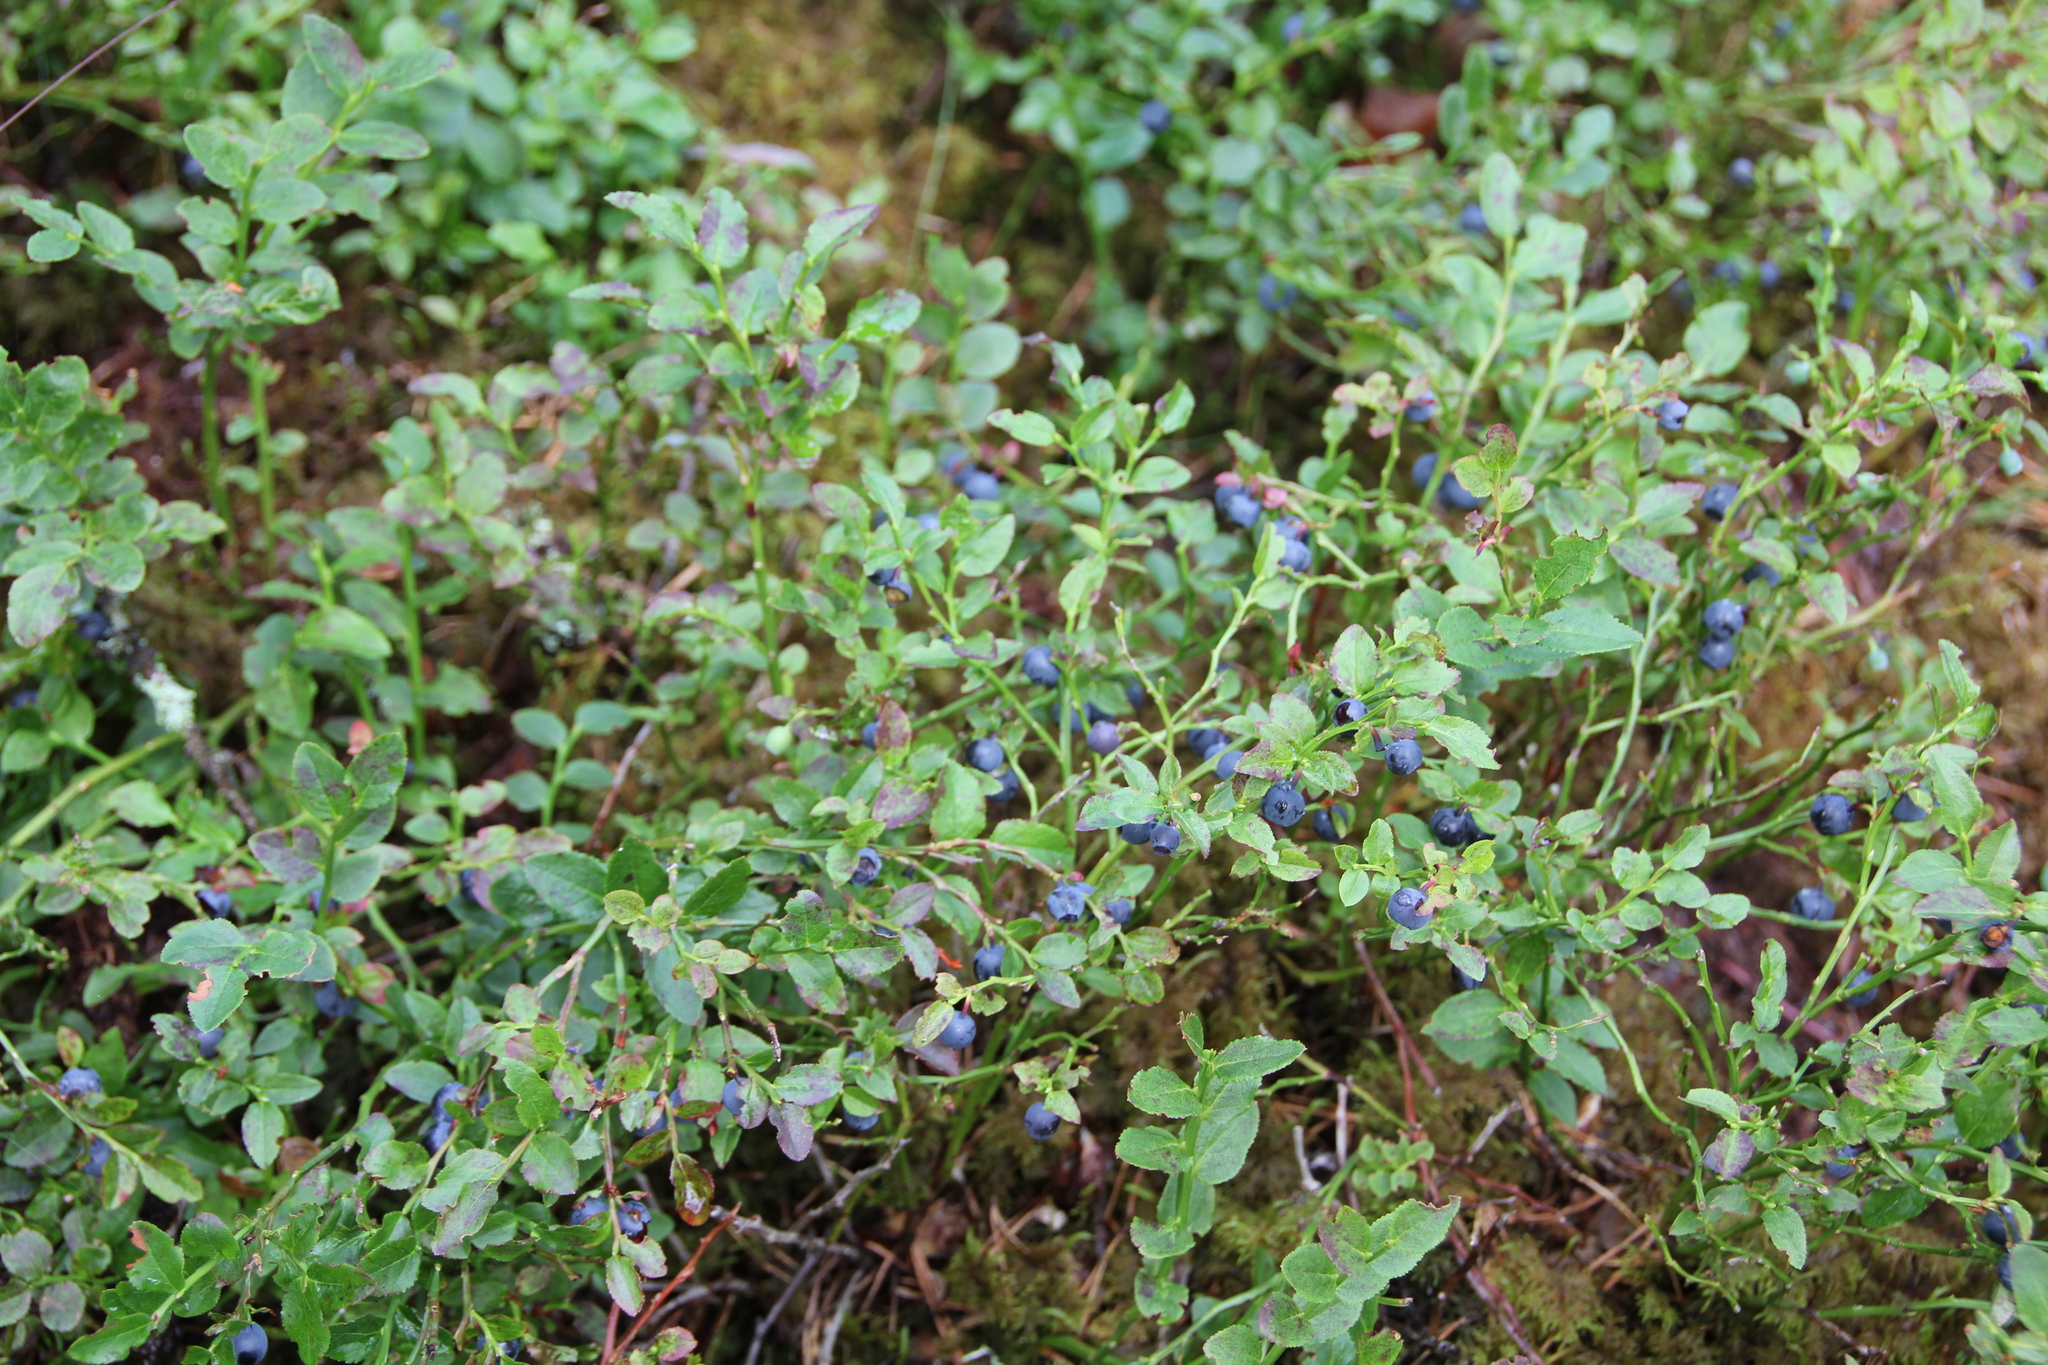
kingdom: Plantae
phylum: Tracheophyta
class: Magnoliopsida
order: Ericales
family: Ericaceae
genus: Vaccinium
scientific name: Vaccinium myrtillus
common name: Bilberry
